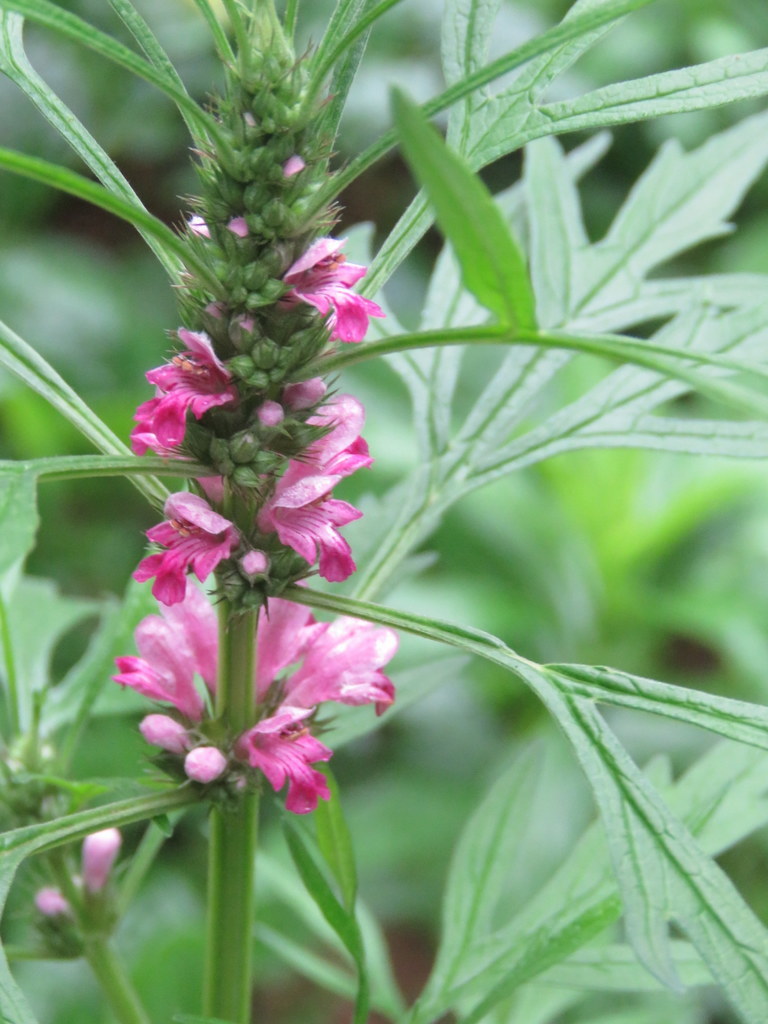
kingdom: Plantae
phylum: Tracheophyta
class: Magnoliopsida
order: Lamiales
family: Lamiaceae
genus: Leonurus
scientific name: Leonurus sibiricus
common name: Honeyweed
